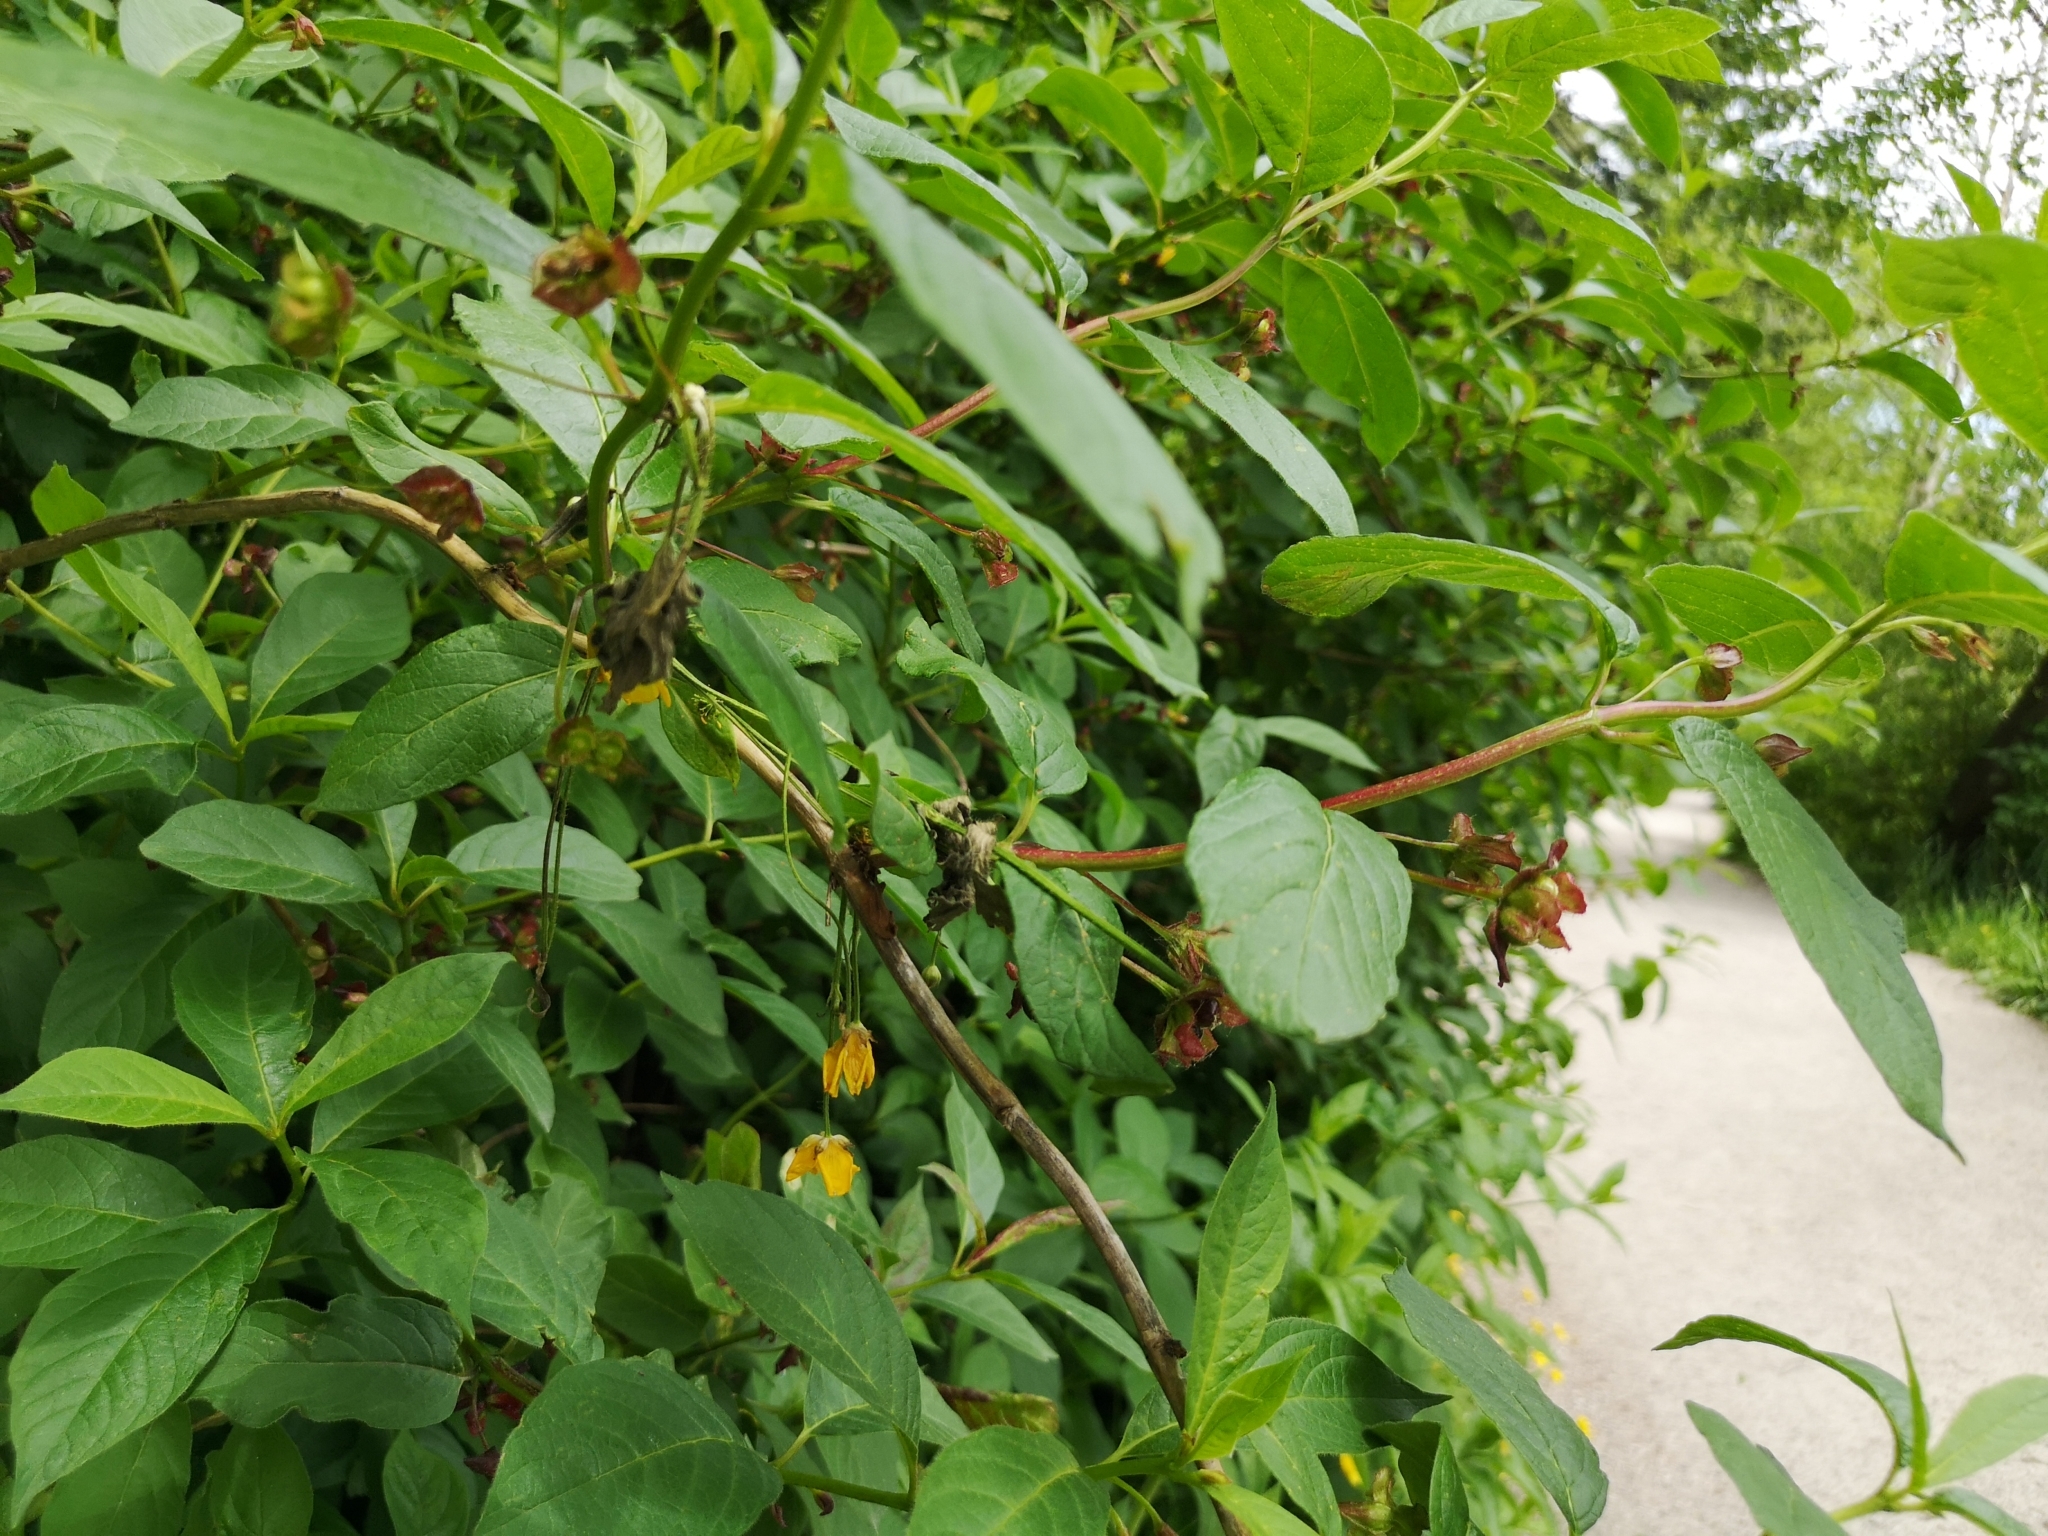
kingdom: Plantae
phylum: Tracheophyta
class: Magnoliopsida
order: Dipsacales
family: Caprifoliaceae
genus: Lonicera
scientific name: Lonicera involucrata
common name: Californian honeysuckle
